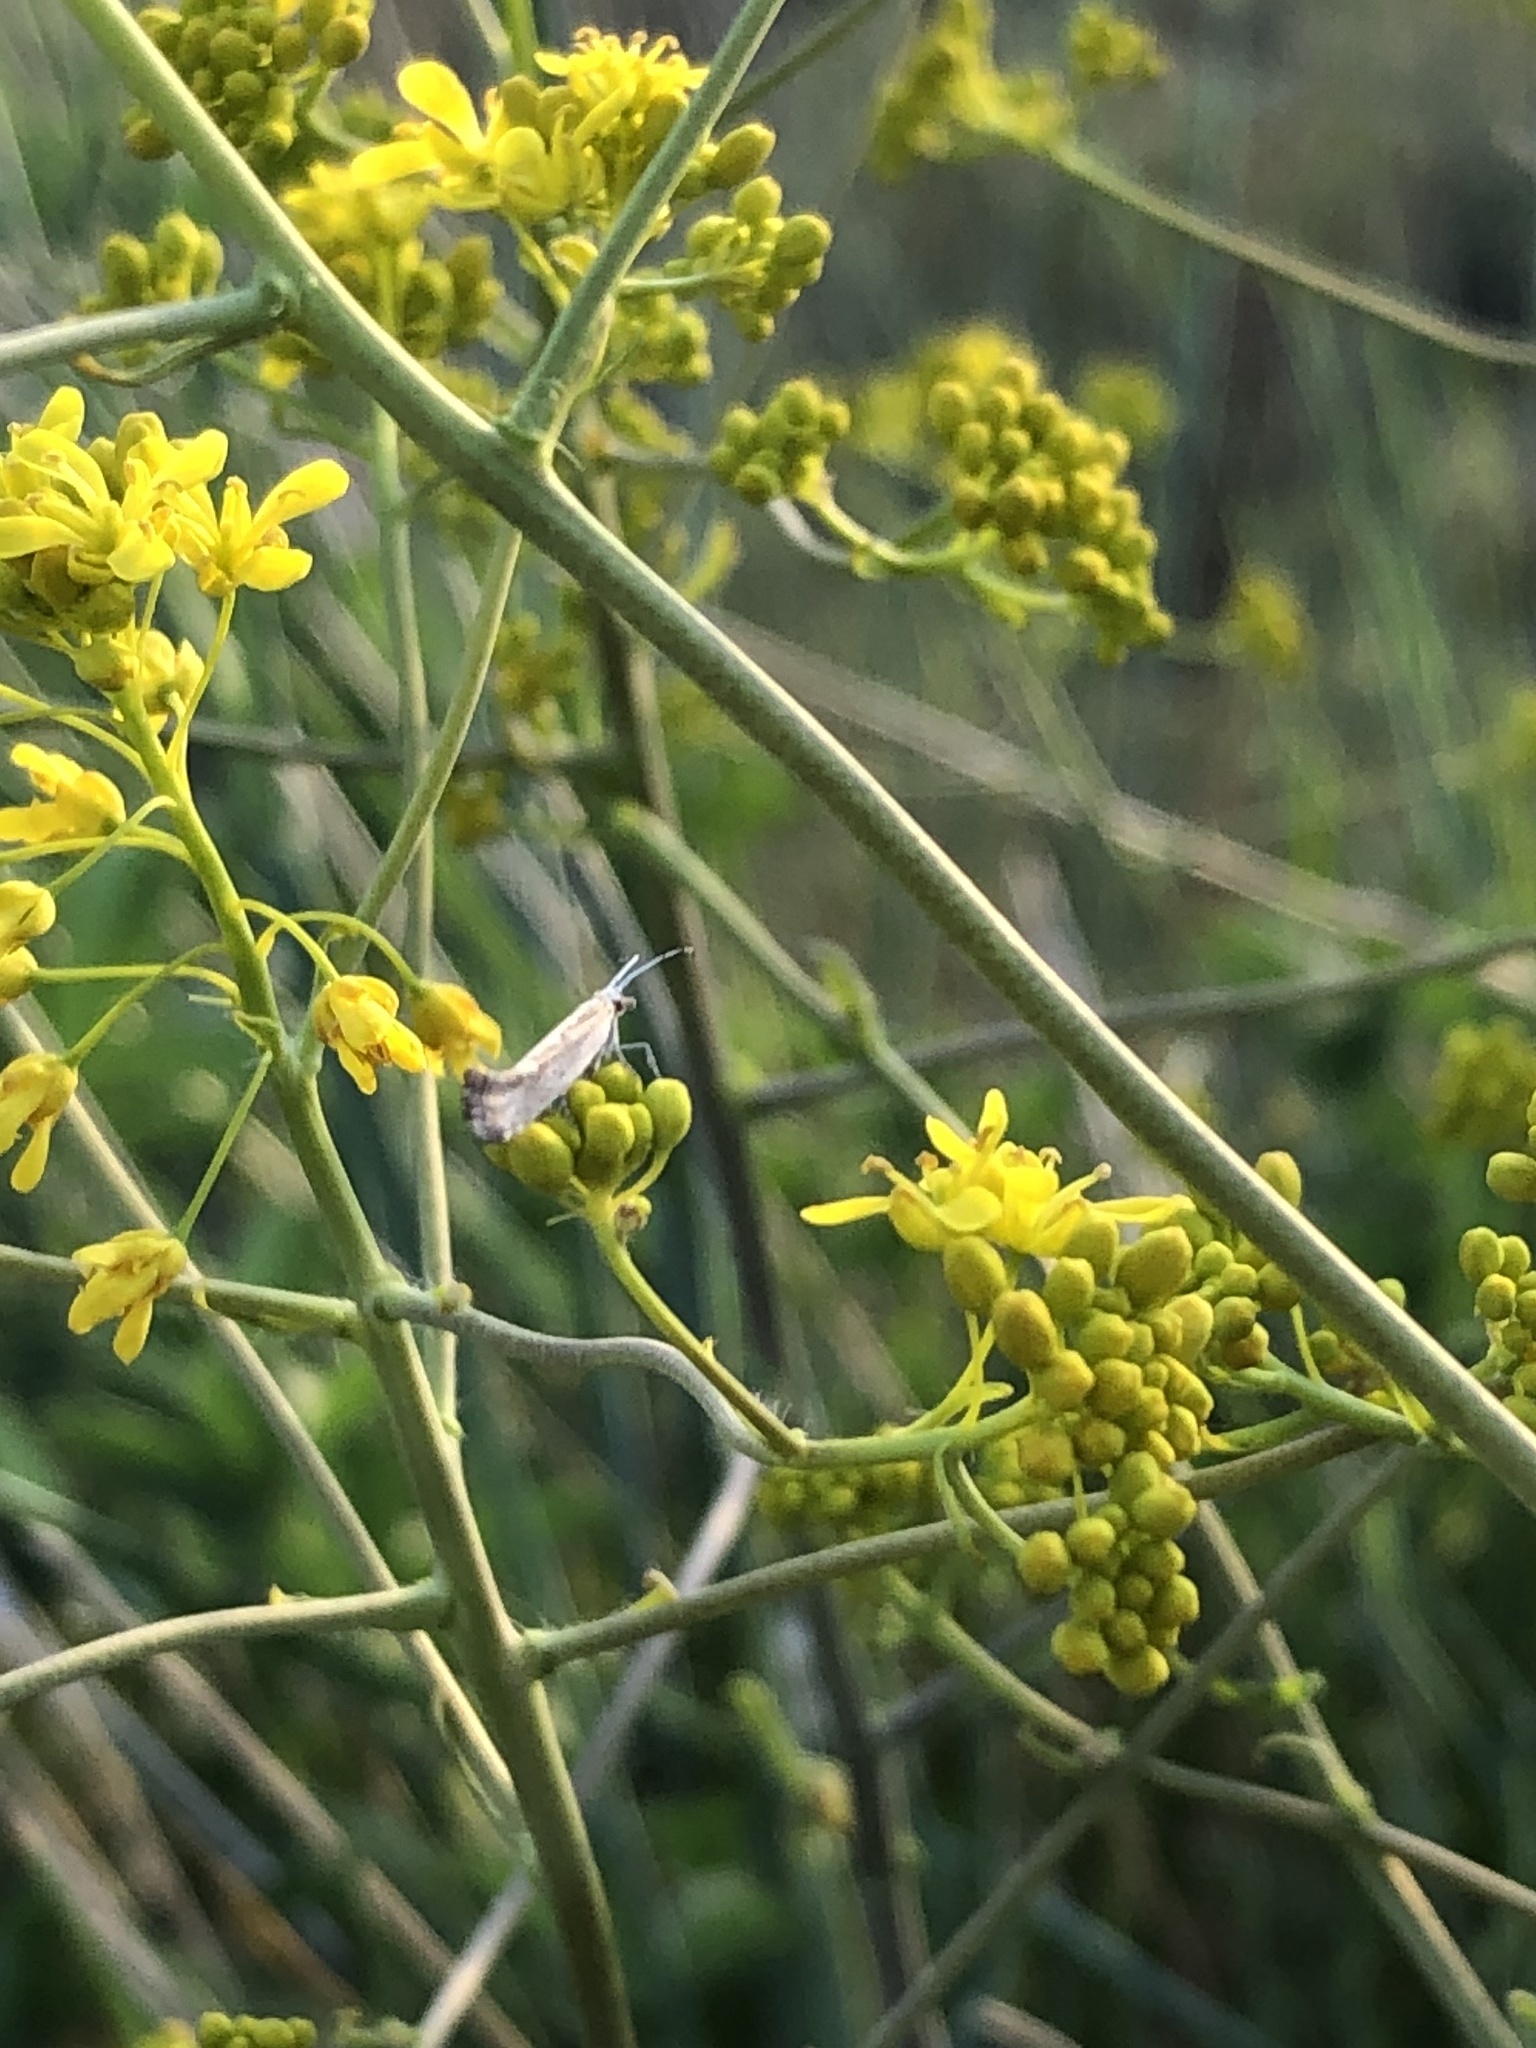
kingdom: Animalia
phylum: Arthropoda
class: Insecta
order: Lepidoptera
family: Plutellidae
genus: Plutella
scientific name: Plutella xylostella
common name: Diamond-back moth
